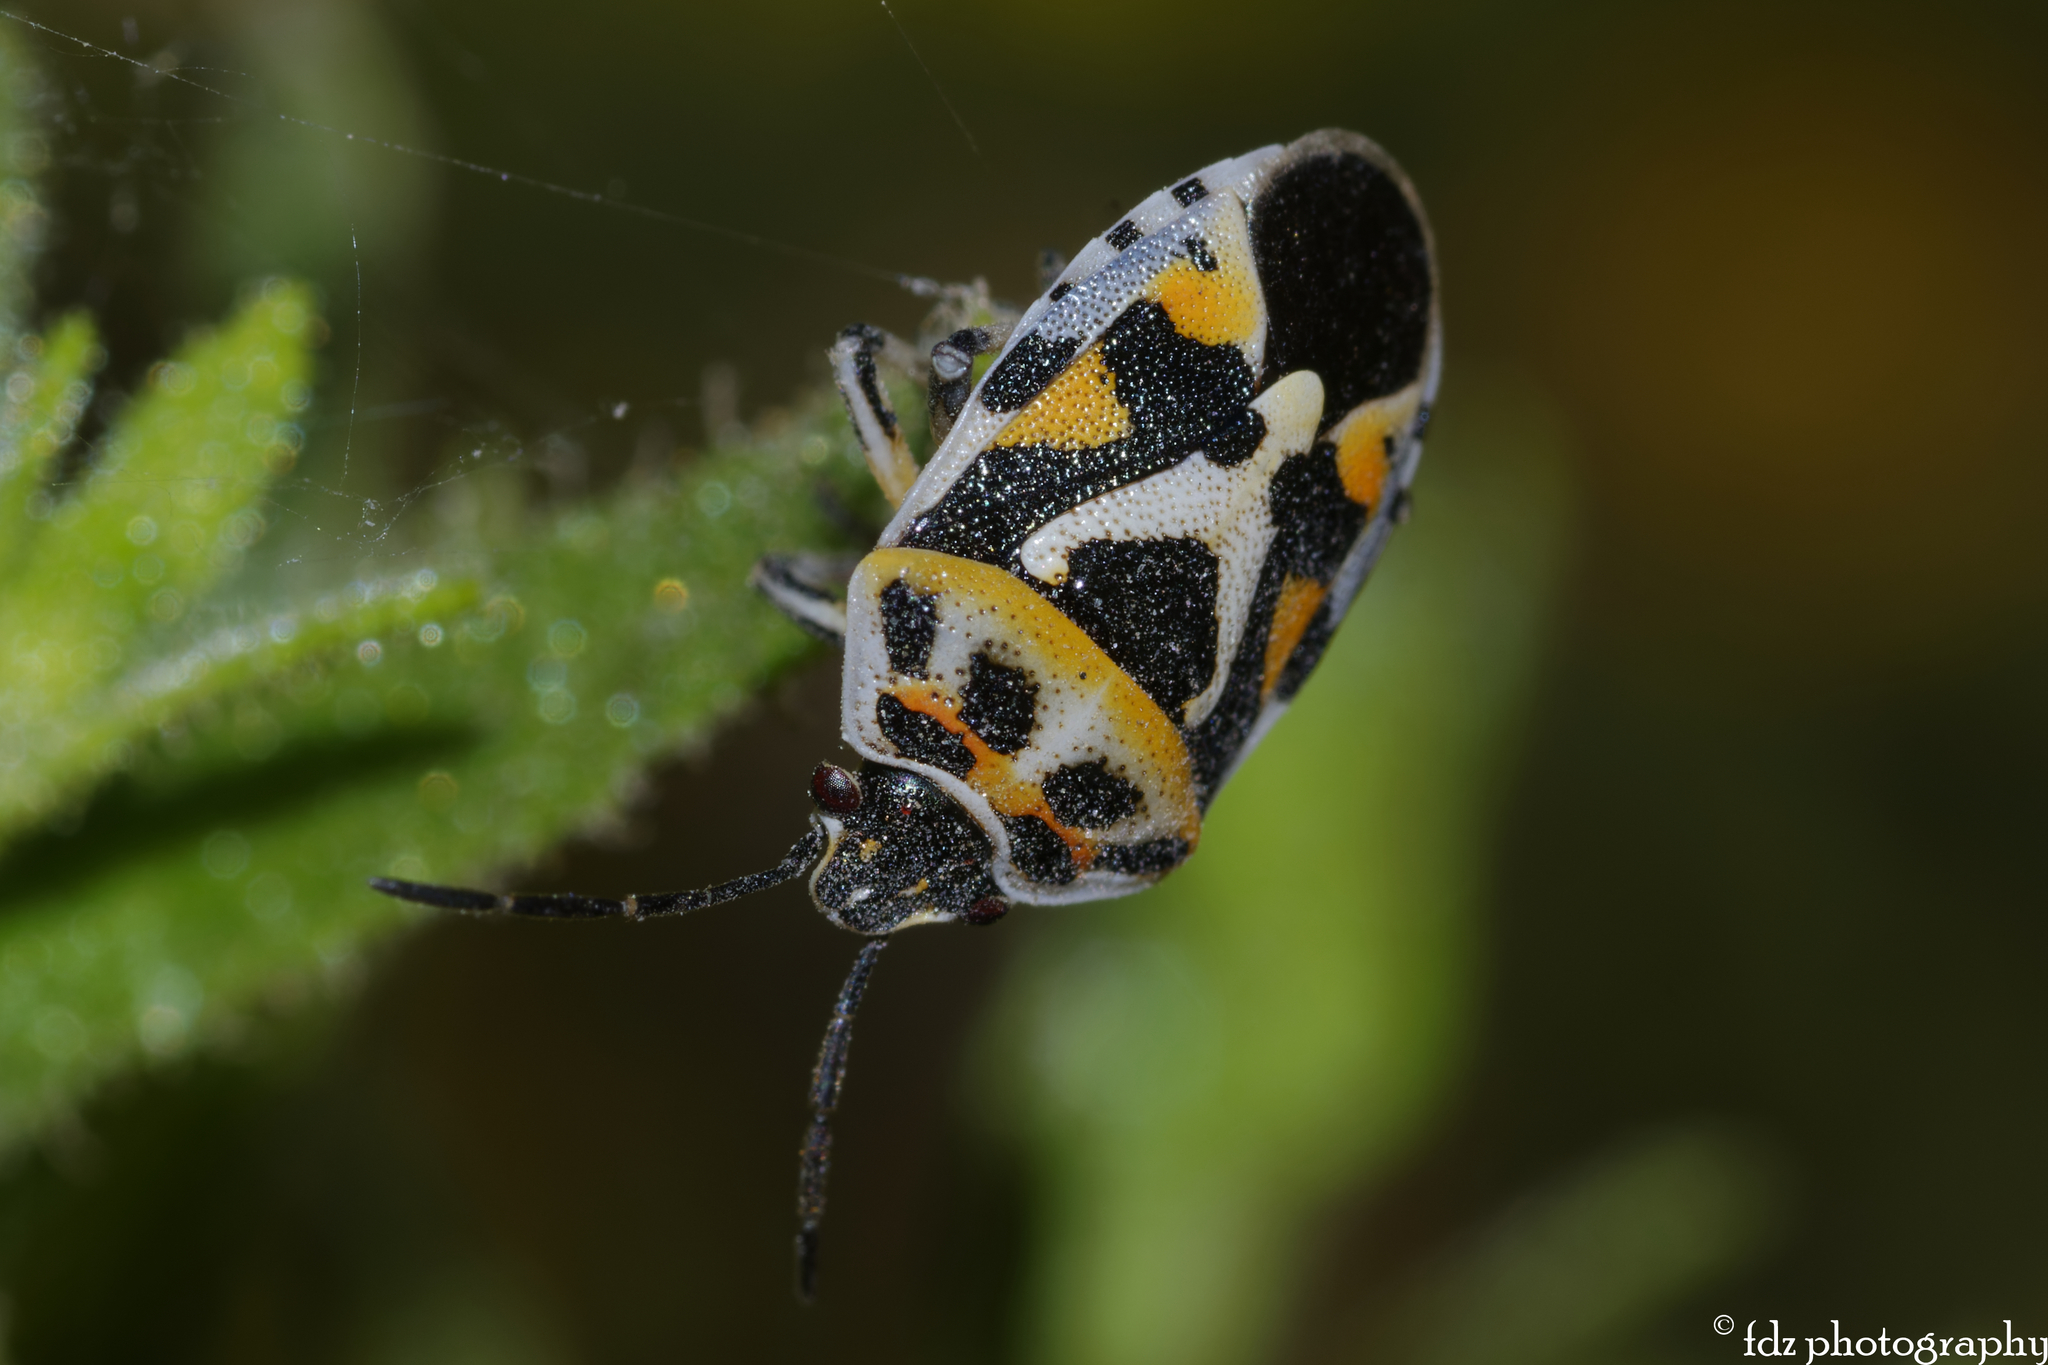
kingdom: Animalia
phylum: Arthropoda
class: Insecta
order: Hemiptera
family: Pentatomidae
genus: Eurydema
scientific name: Eurydema ornata
